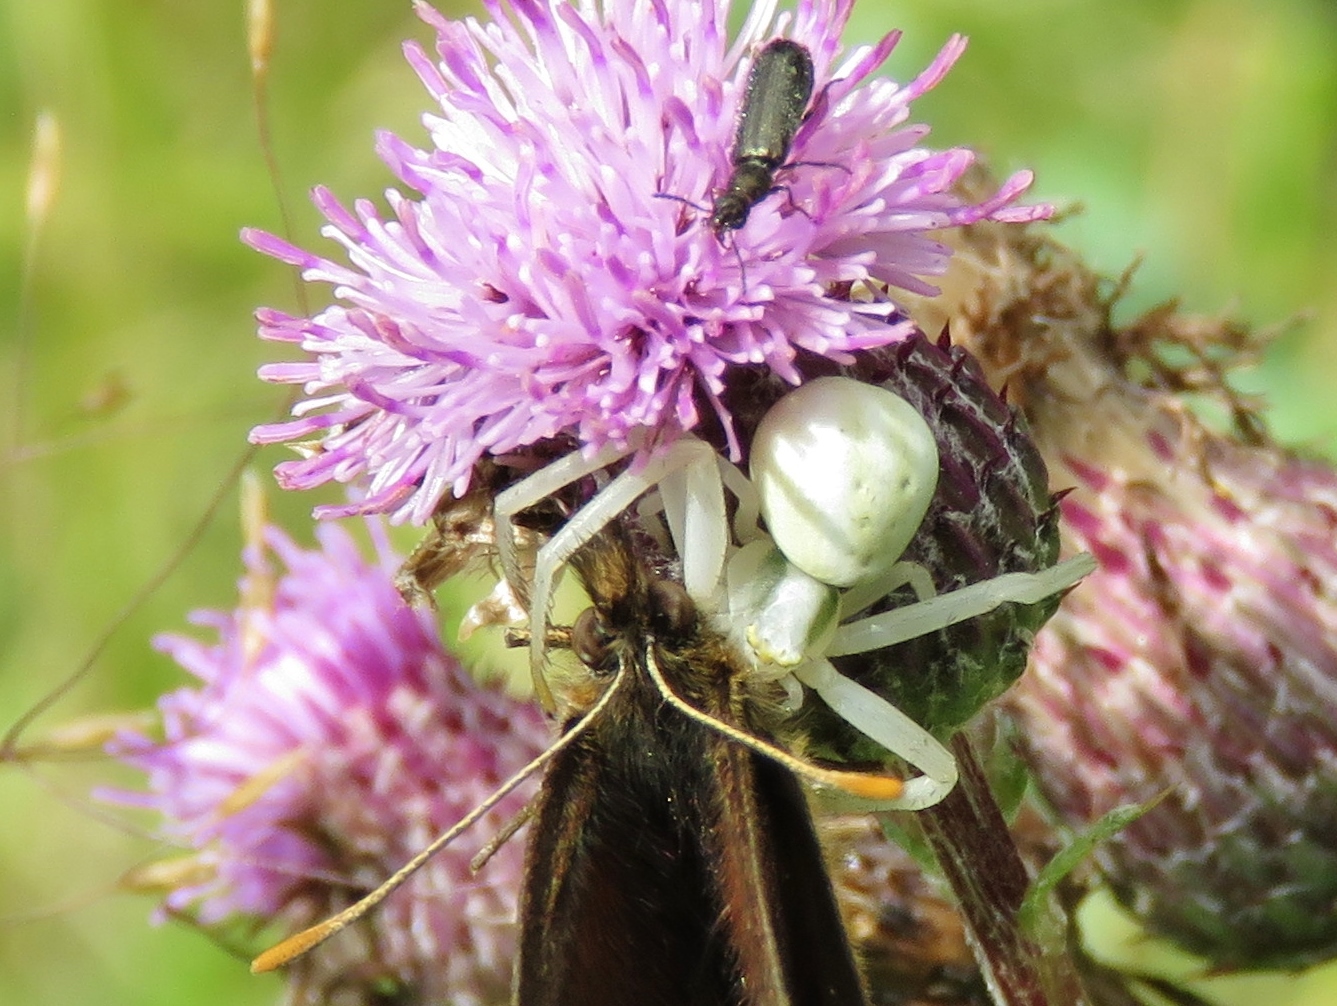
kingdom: Animalia
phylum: Arthropoda
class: Arachnida
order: Araneae
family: Thomisidae
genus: Misumena
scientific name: Misumena vatia
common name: Goldenrod crab spider
